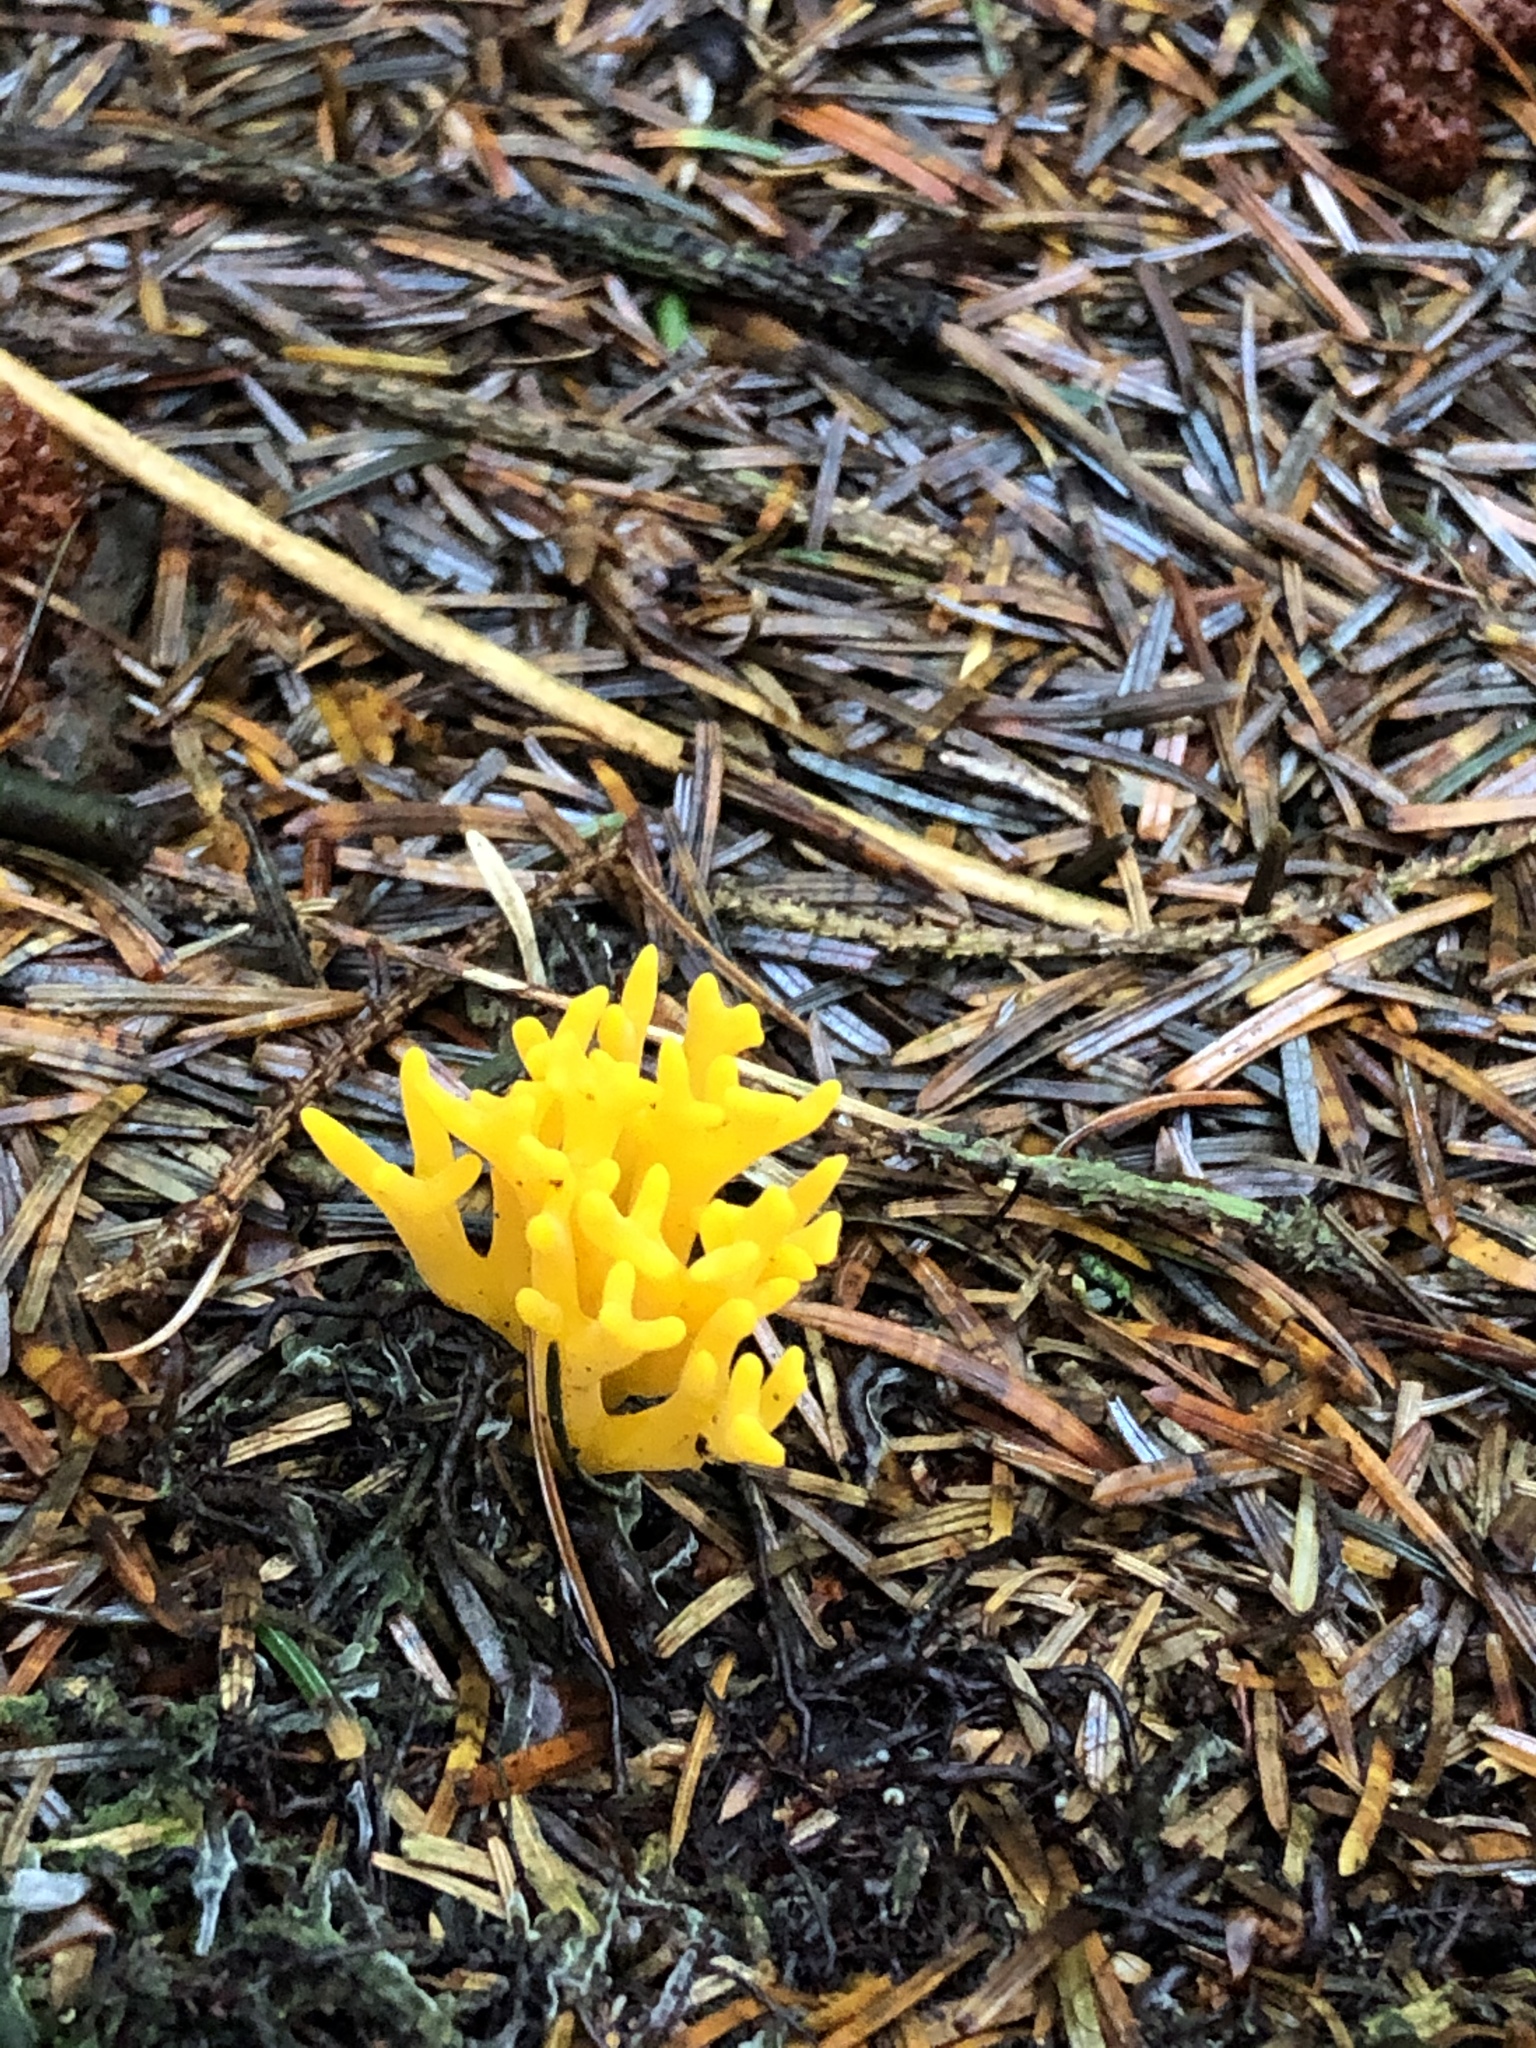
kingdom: Fungi
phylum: Basidiomycota
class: Dacrymycetes
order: Dacrymycetales
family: Dacrymycetaceae
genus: Calocera
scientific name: Calocera viscosa
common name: Yellow stagshorn
